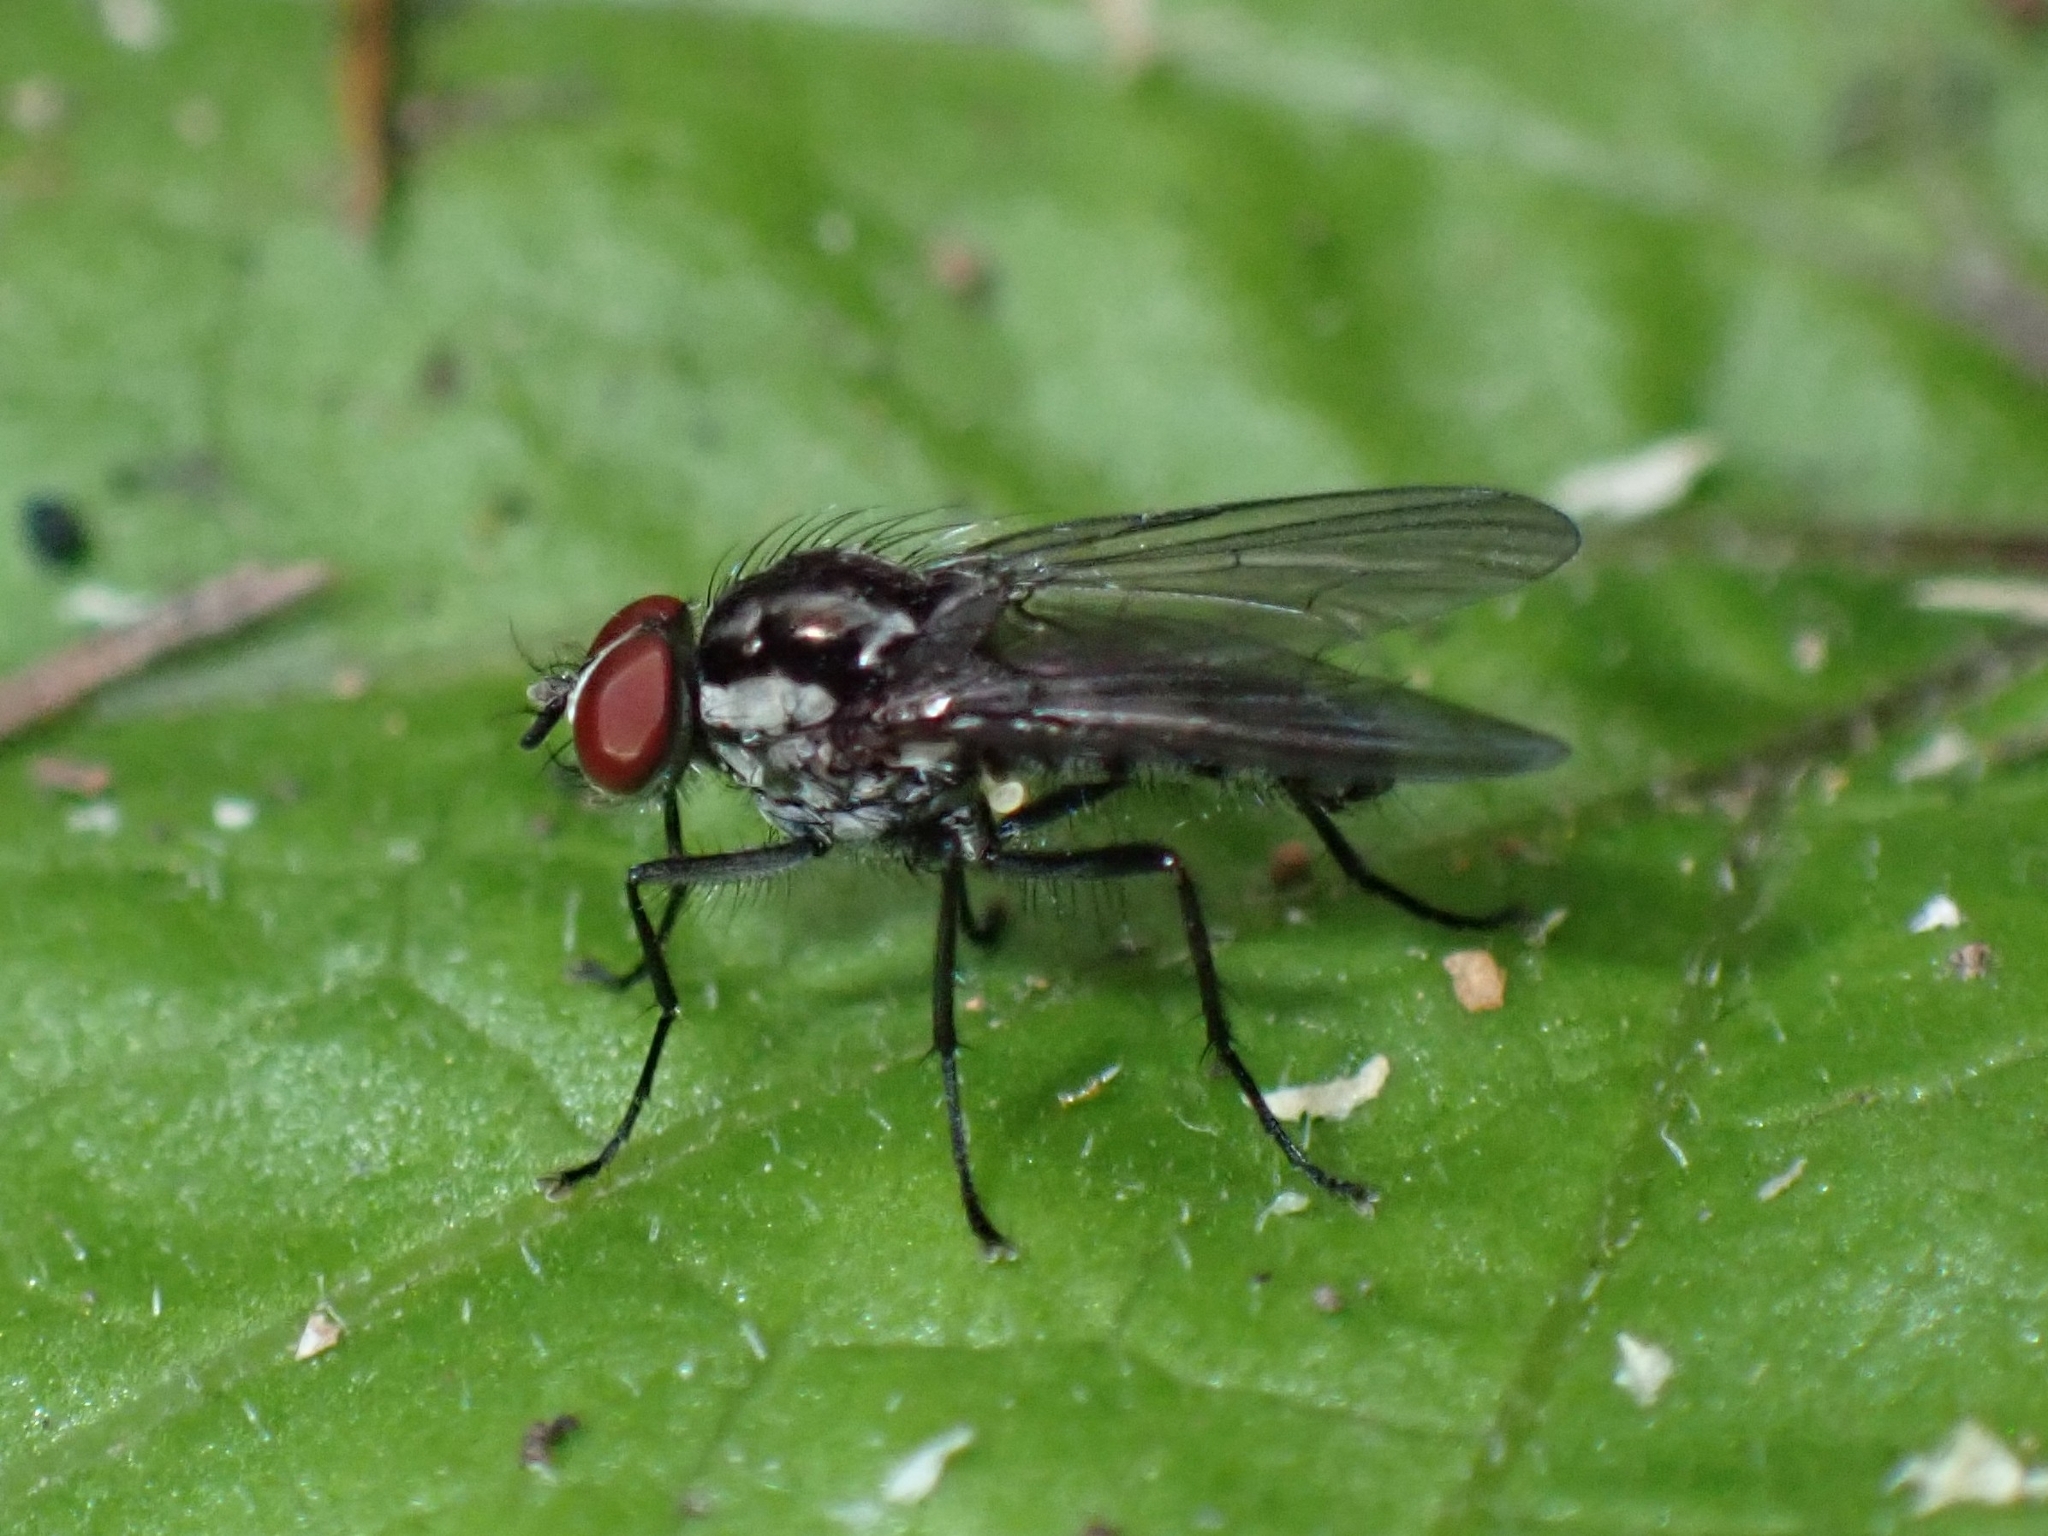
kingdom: Animalia
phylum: Arthropoda
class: Insecta
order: Diptera
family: Anthomyiidae
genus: Hylemya
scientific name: Hylemya latevittata
